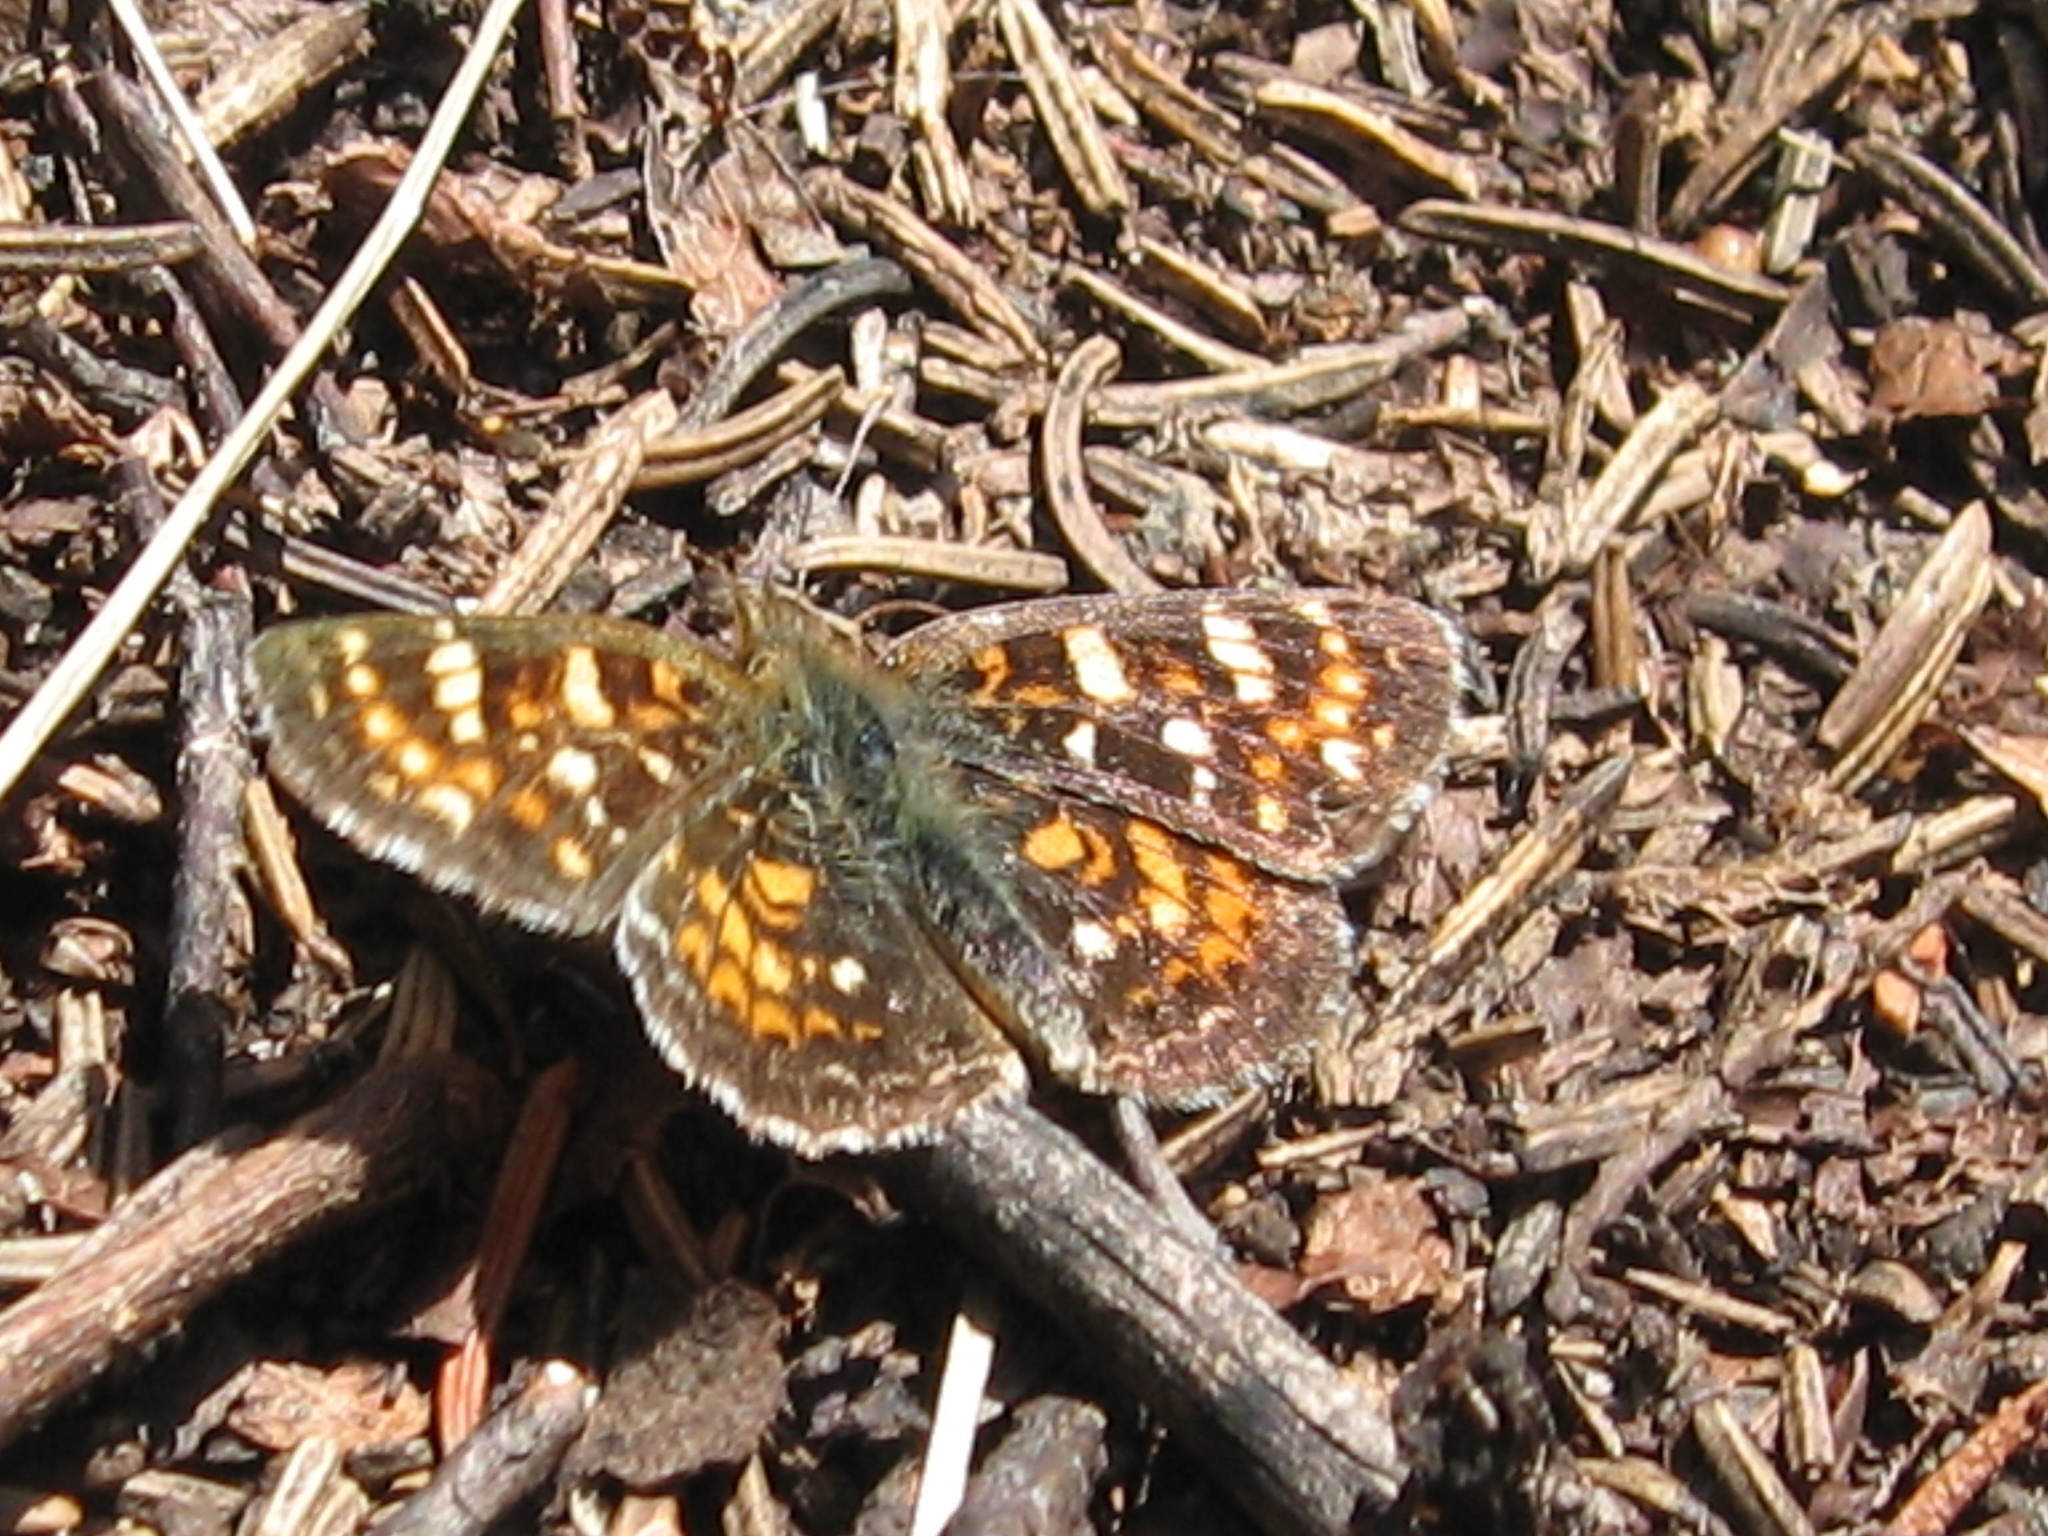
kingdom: Animalia
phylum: Arthropoda
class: Insecta
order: Lepidoptera
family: Nymphalidae
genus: Phyciodes
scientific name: Phyciodes tharos
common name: Pearl crescent
